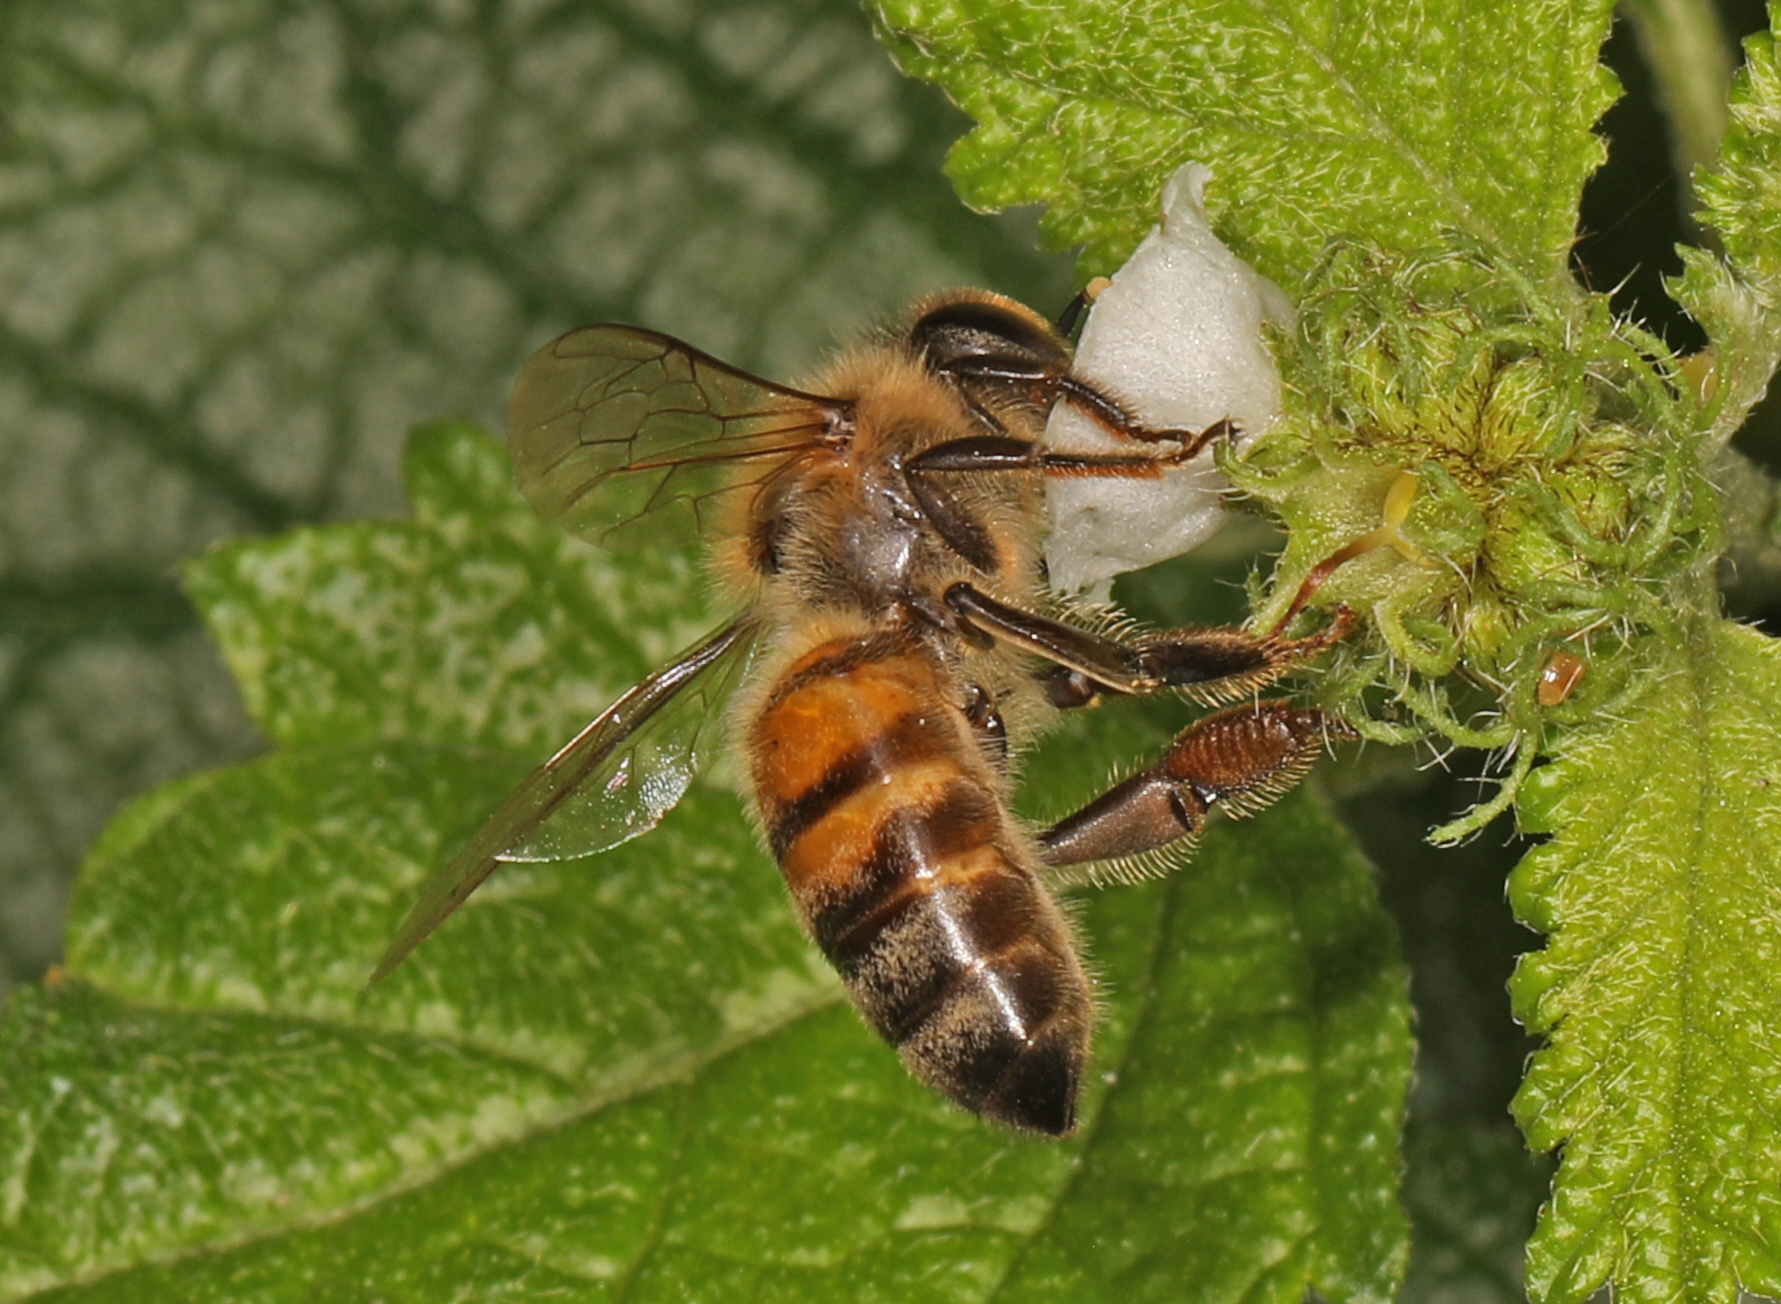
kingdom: Animalia
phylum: Arthropoda
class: Insecta
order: Hymenoptera
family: Apidae
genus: Apis
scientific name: Apis mellifera
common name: Honey bee
